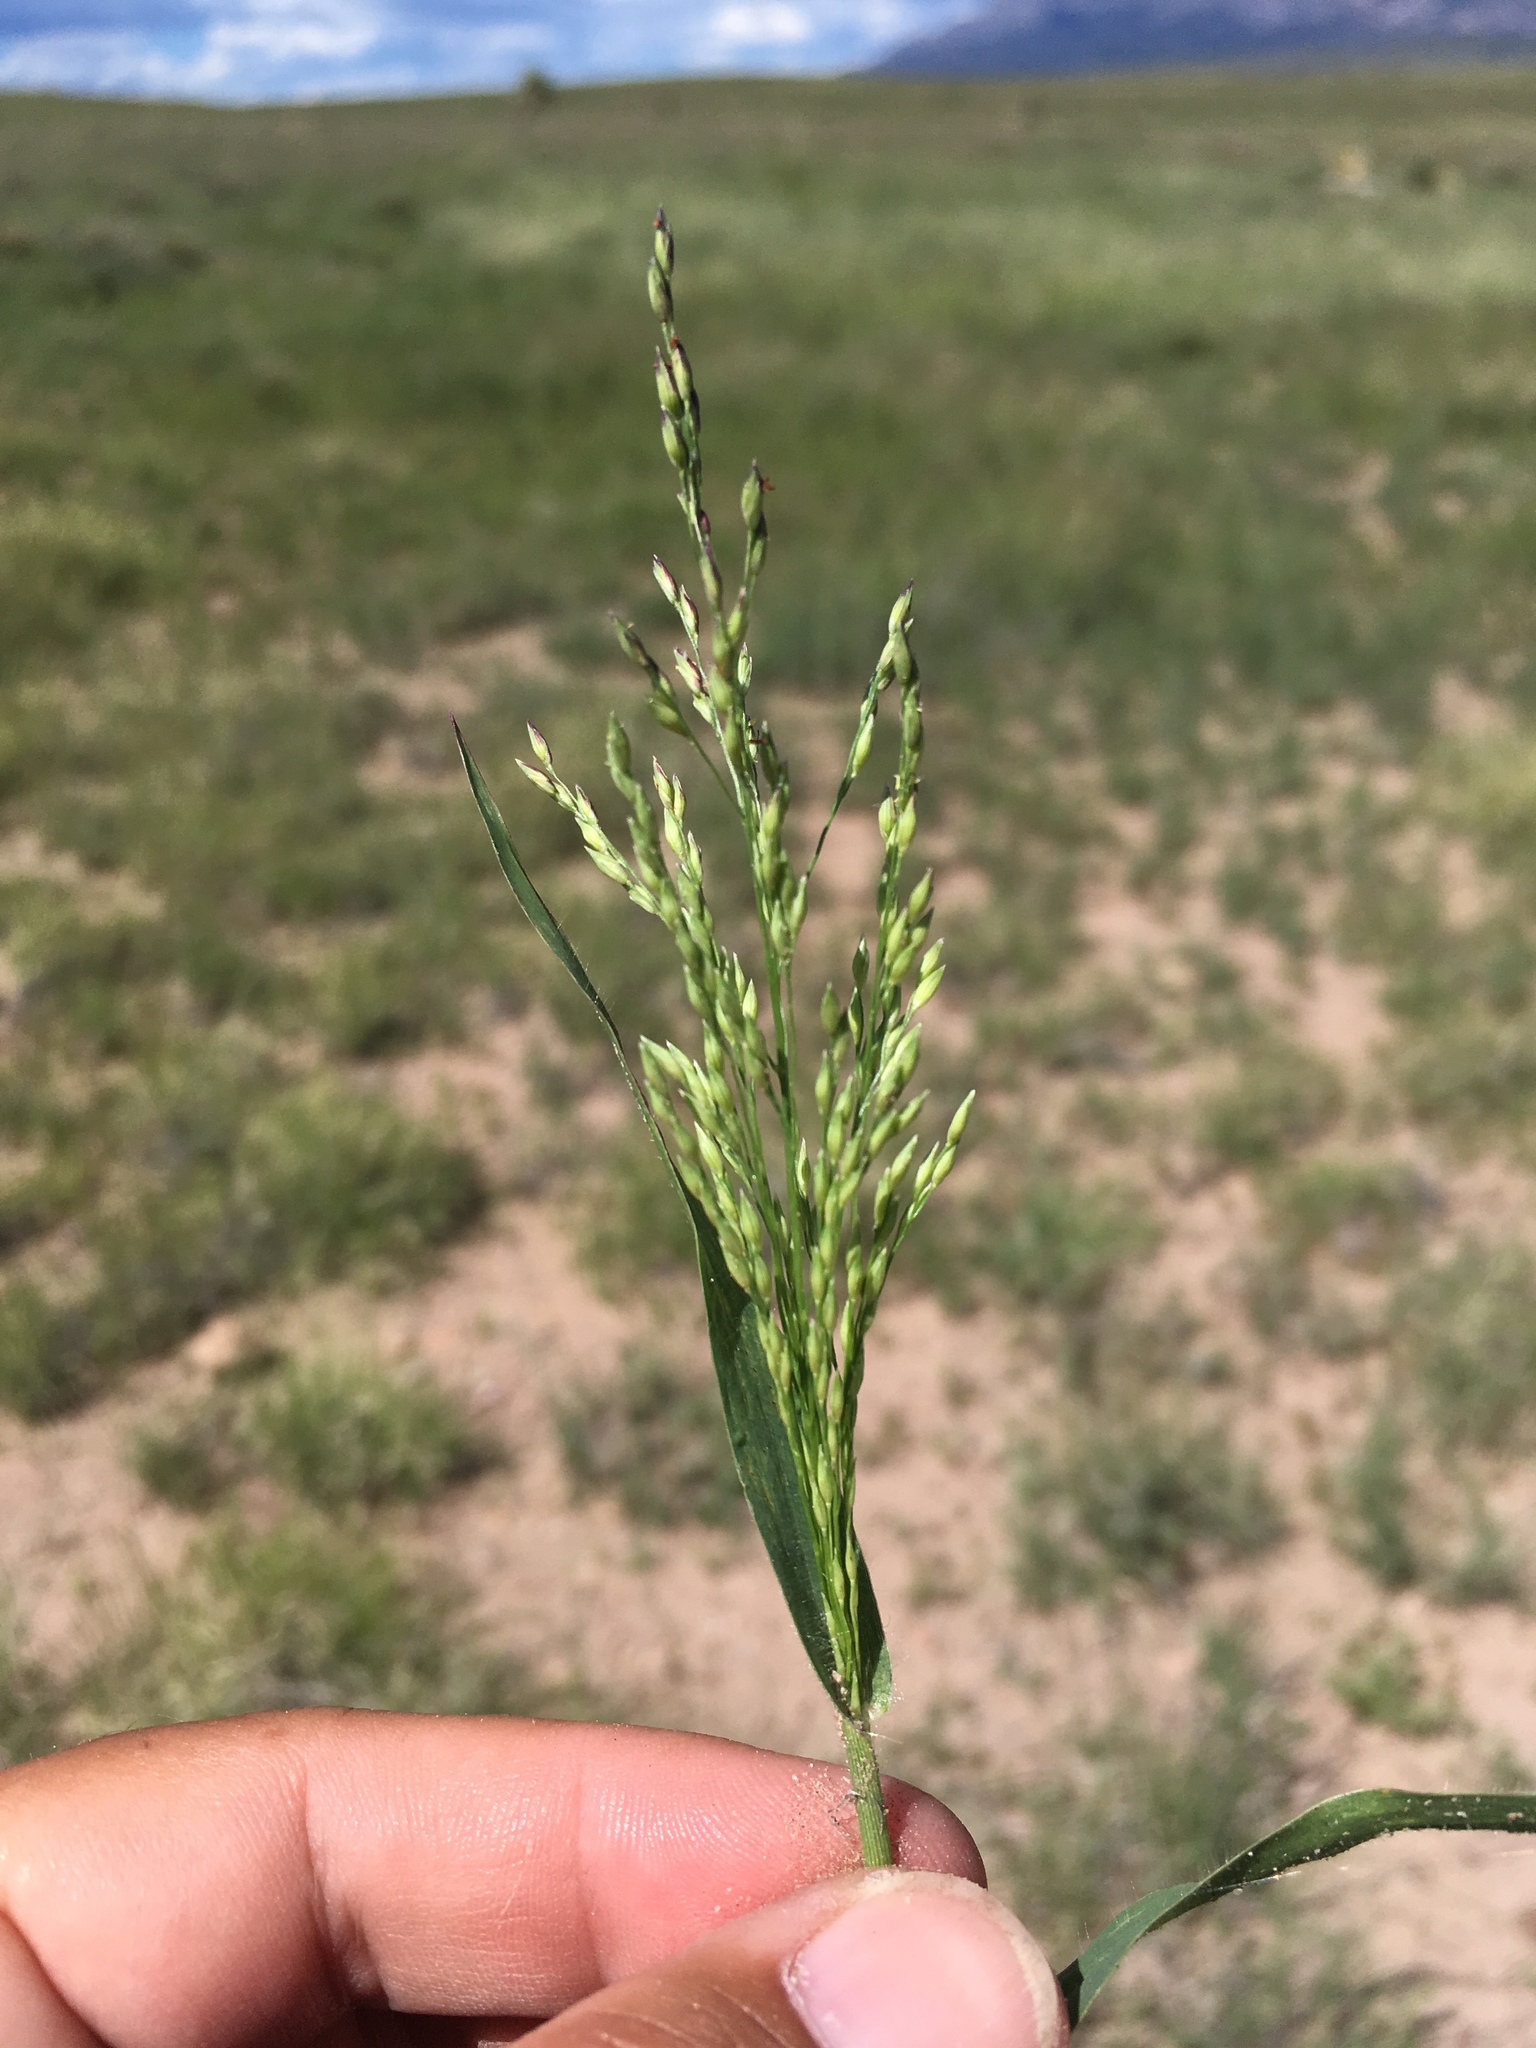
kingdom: Plantae
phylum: Tracheophyta
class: Liliopsida
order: Poales
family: Poaceae
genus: Panicum
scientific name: Panicum hirticaule
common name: Rough-stalk witchgrass
